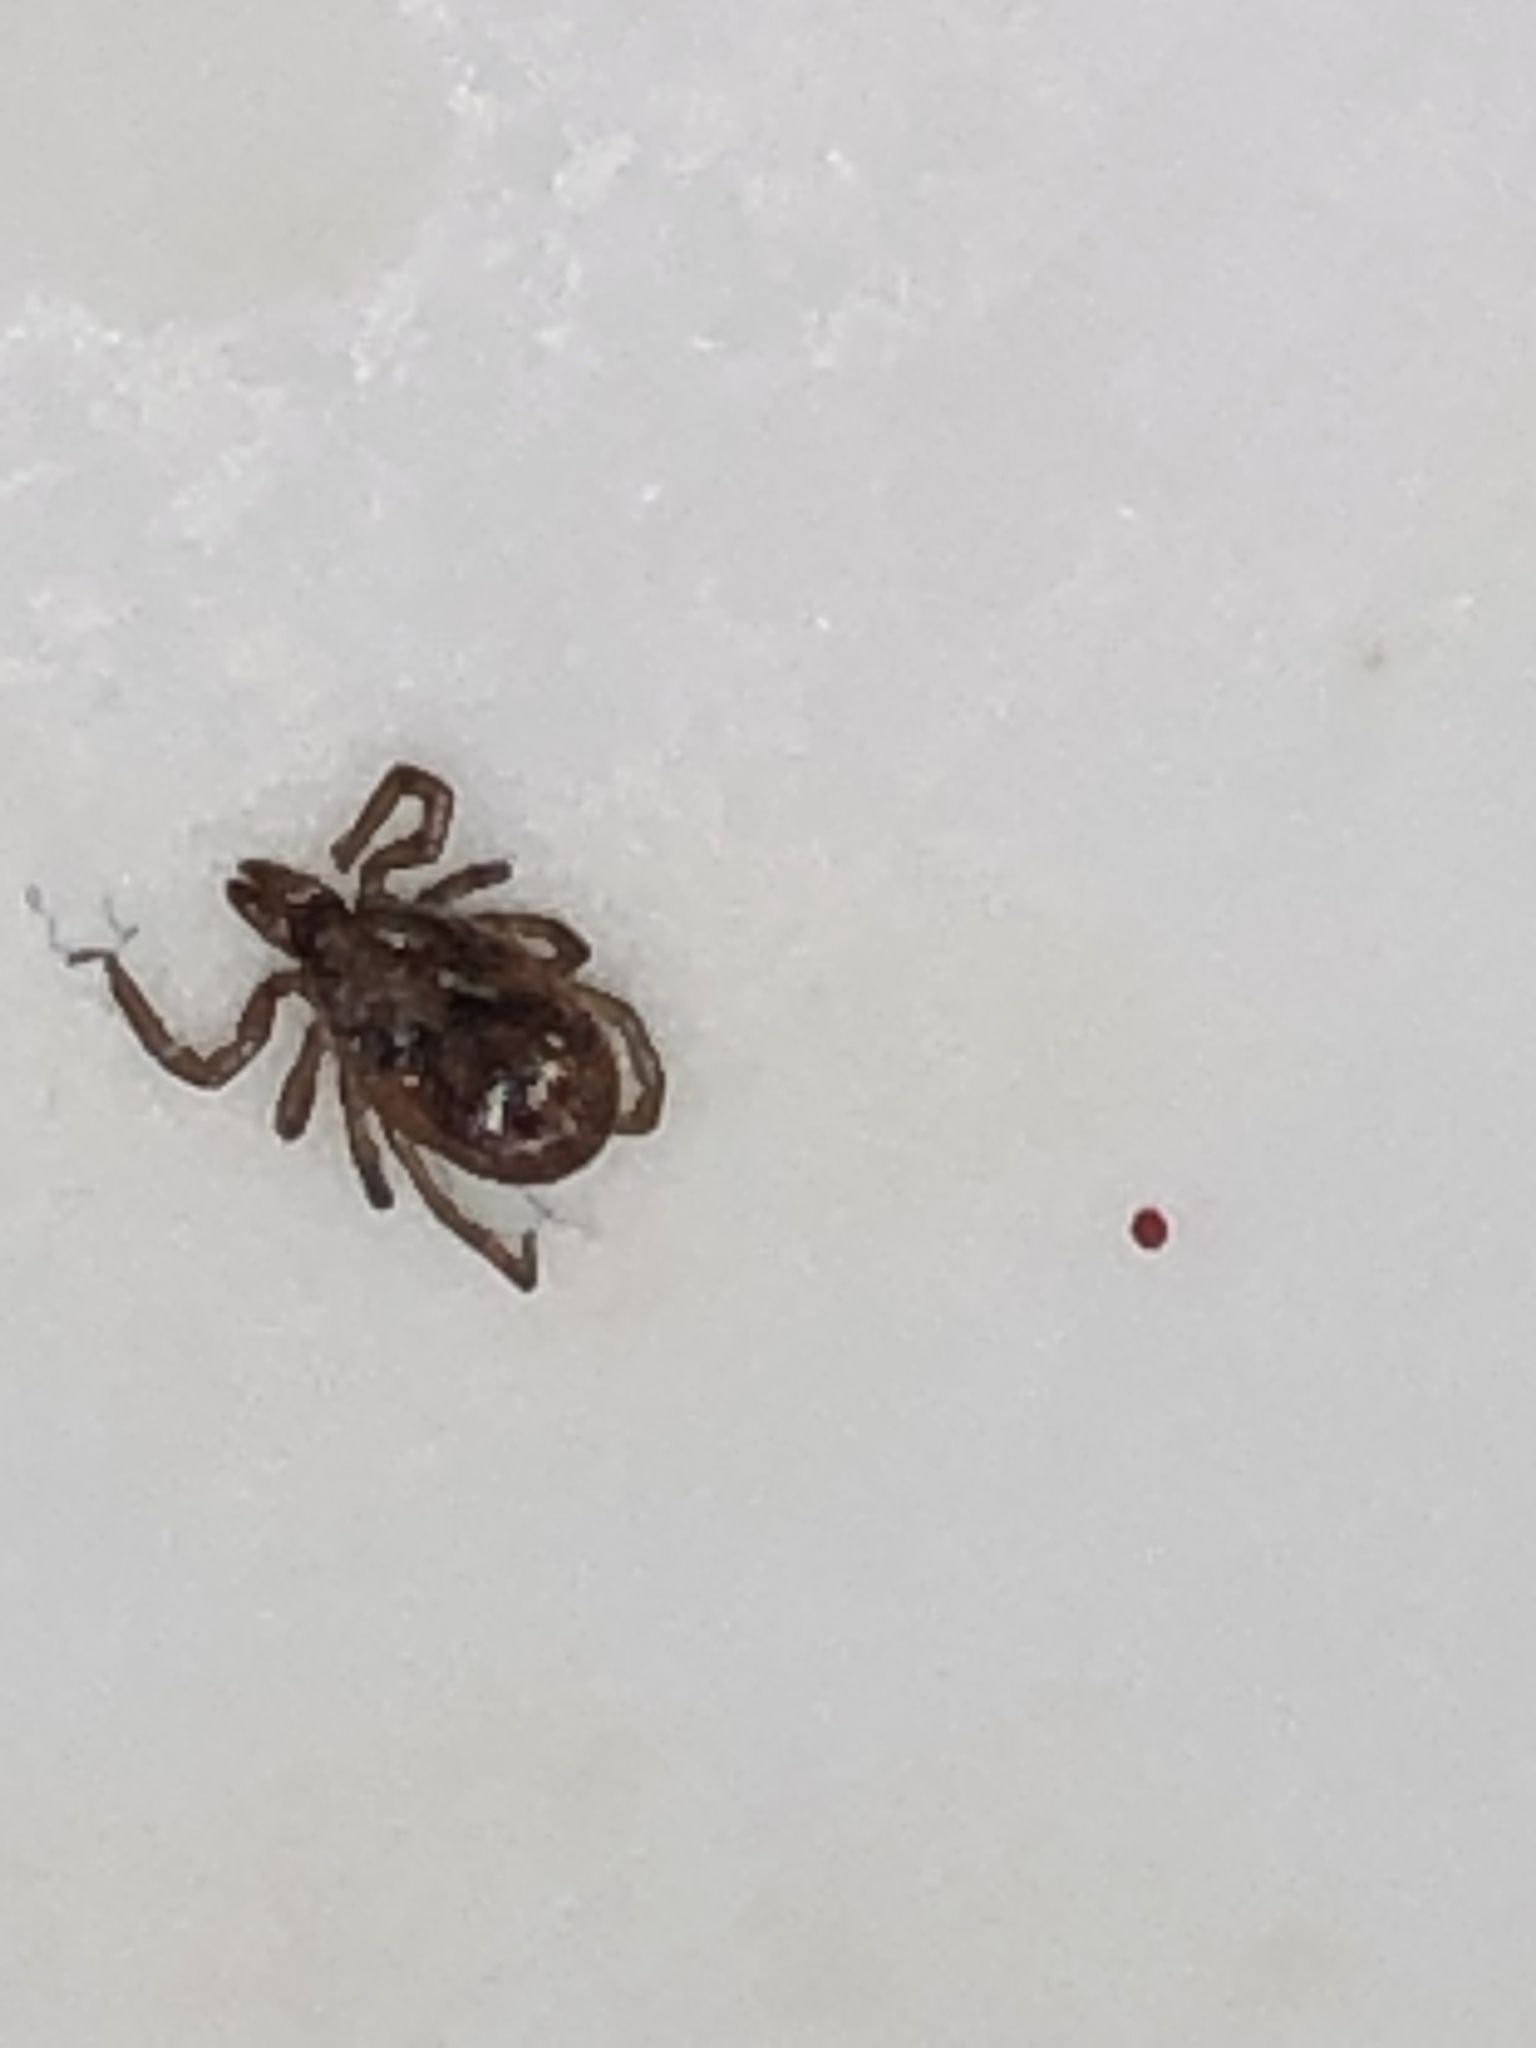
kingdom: Animalia
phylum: Arthropoda
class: Arachnida
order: Ixodida
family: Ixodidae
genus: Ixodes
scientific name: Ixodes scapularis
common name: Black legged tick
